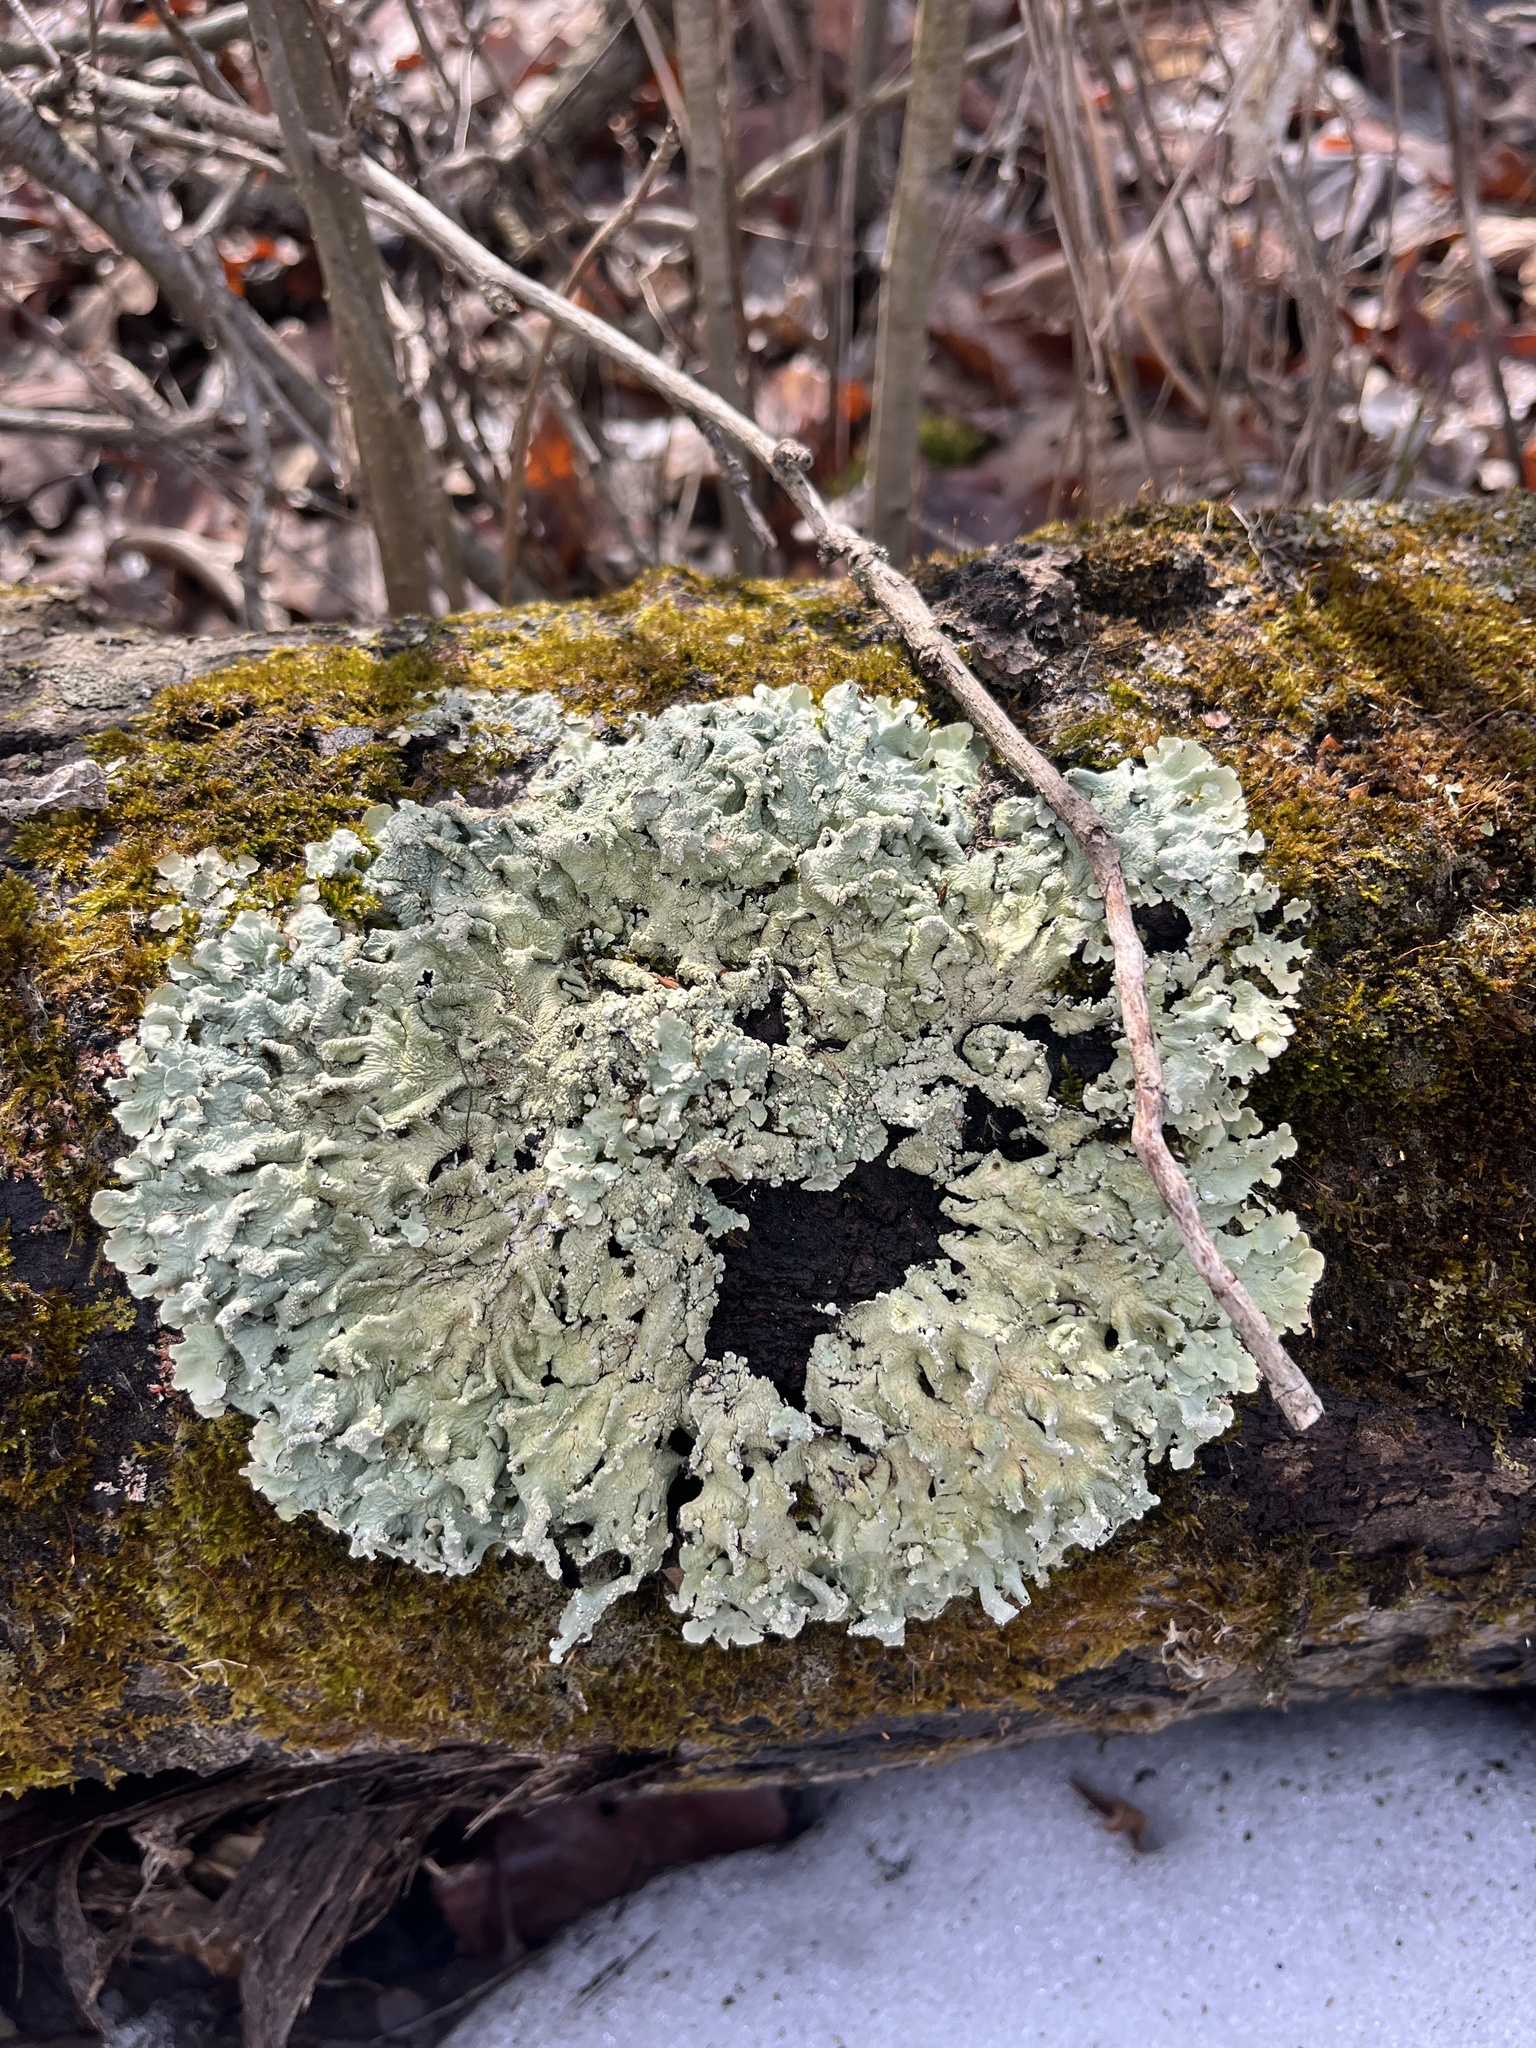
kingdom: Fungi
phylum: Ascomycota
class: Lecanoromycetes
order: Lecanorales
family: Parmeliaceae
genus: Flavoparmelia
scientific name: Flavoparmelia caperata
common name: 40-mile per hour lichen
